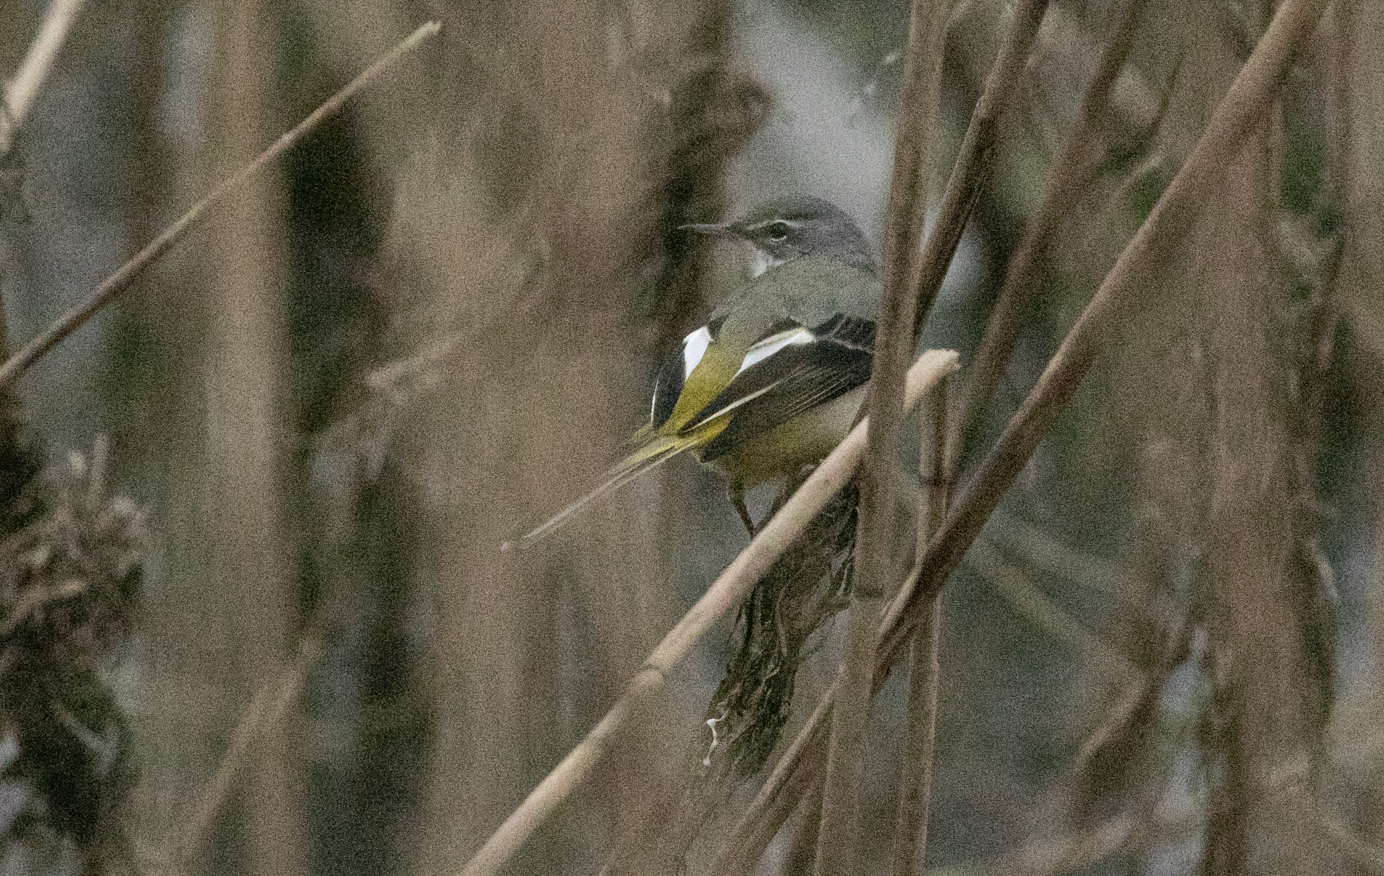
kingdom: Animalia
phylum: Chordata
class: Aves
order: Passeriformes
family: Motacillidae
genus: Motacilla
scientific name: Motacilla cinerea
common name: Grey wagtail
